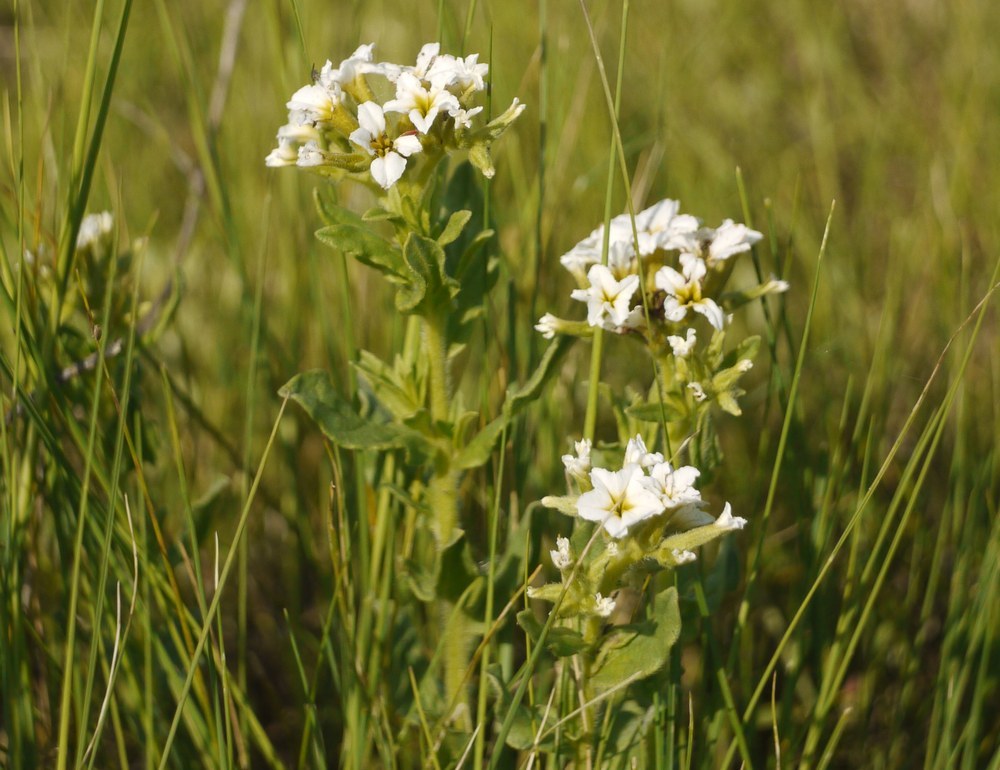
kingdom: Plantae
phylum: Tracheophyta
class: Magnoliopsida
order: Boraginales
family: Heliotropiaceae
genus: Tournefortia
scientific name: Tournefortia sibirica
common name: Siberian sea rosemary
